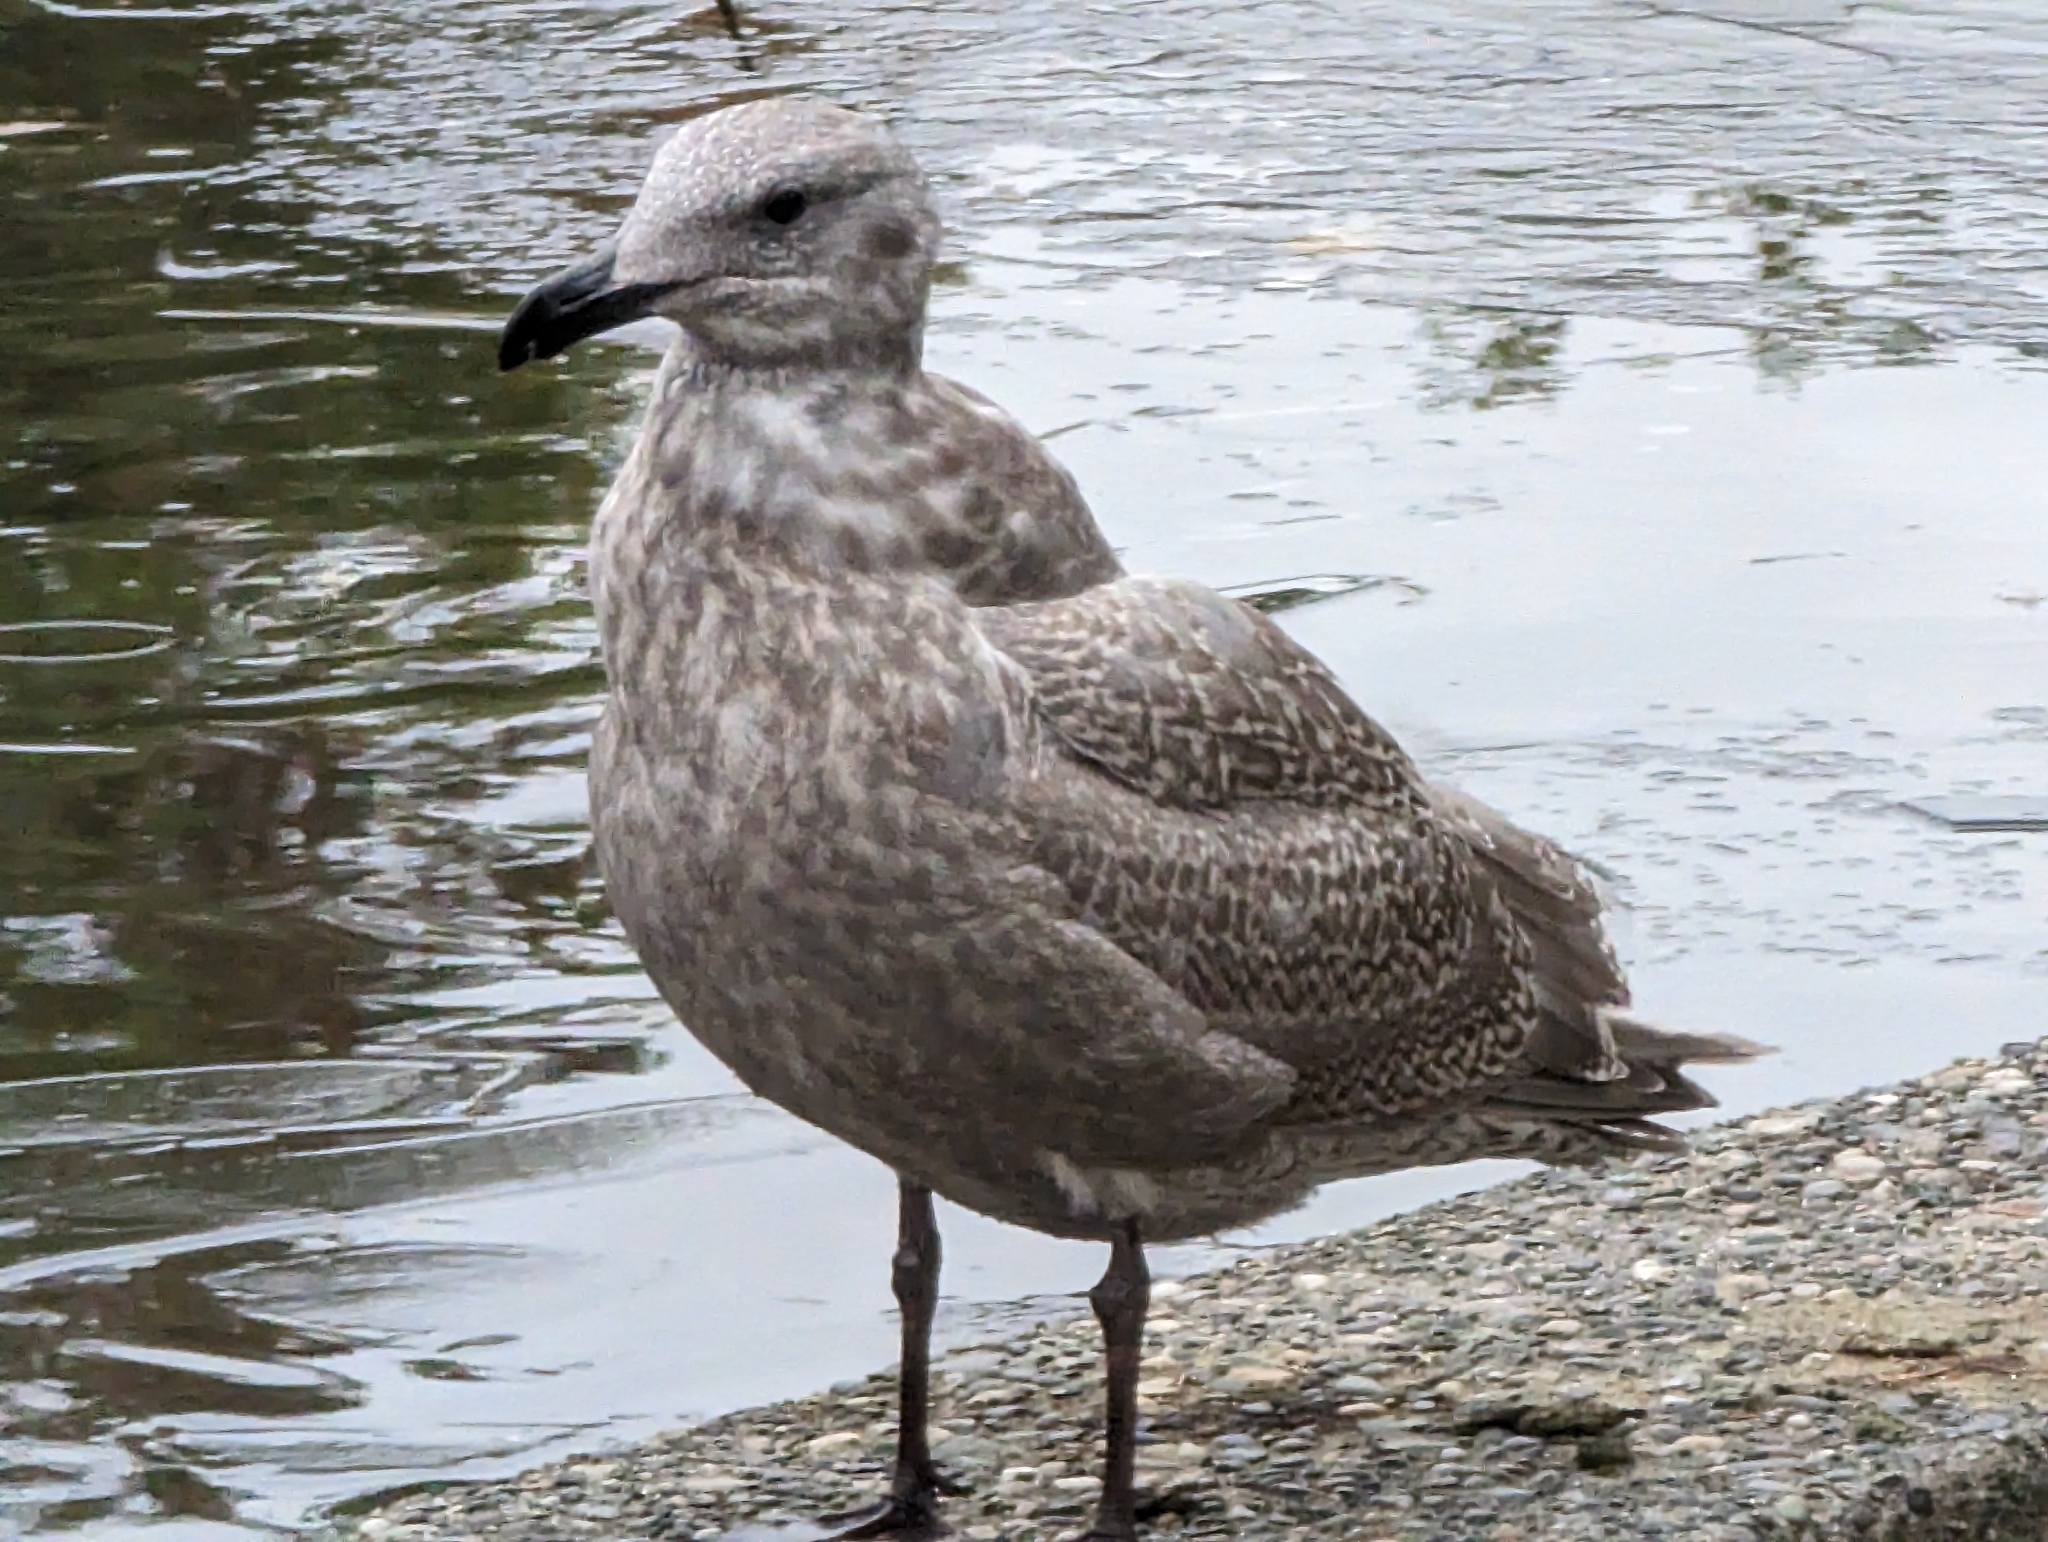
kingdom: Animalia
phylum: Chordata
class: Aves
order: Charadriiformes
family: Laridae
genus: Larus
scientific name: Larus glaucescens
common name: Glaucous-winged gull
